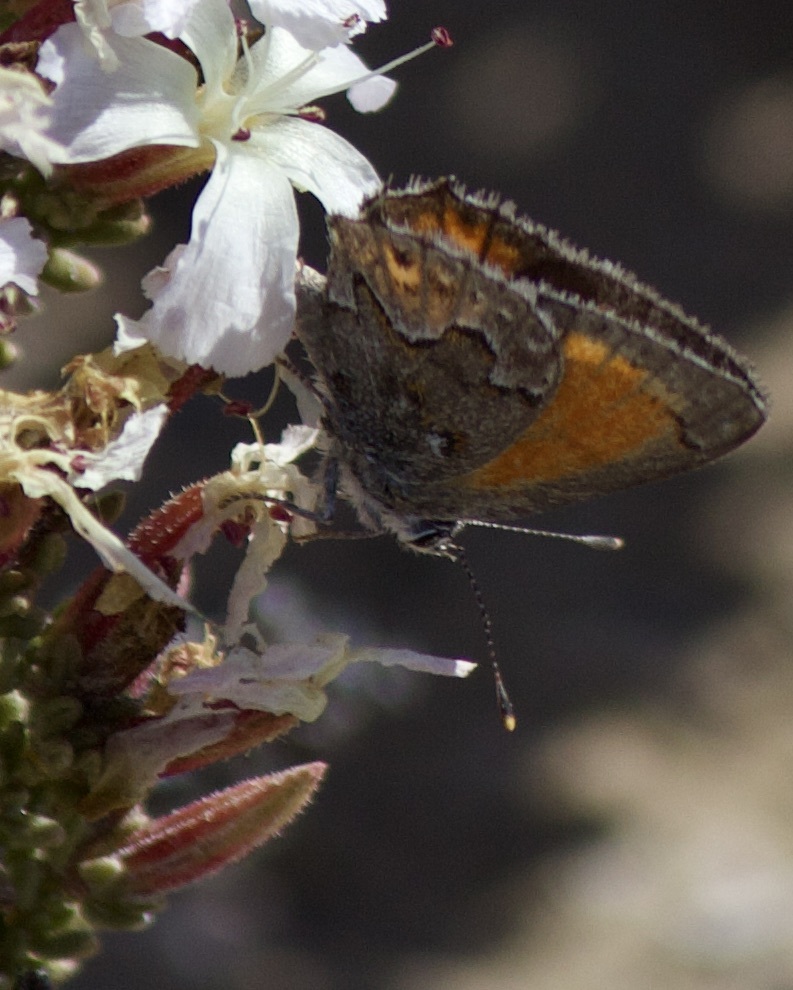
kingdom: Animalia
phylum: Arthropoda
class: Insecta
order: Lepidoptera
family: Lycaenidae
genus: Strymon
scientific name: Strymon
